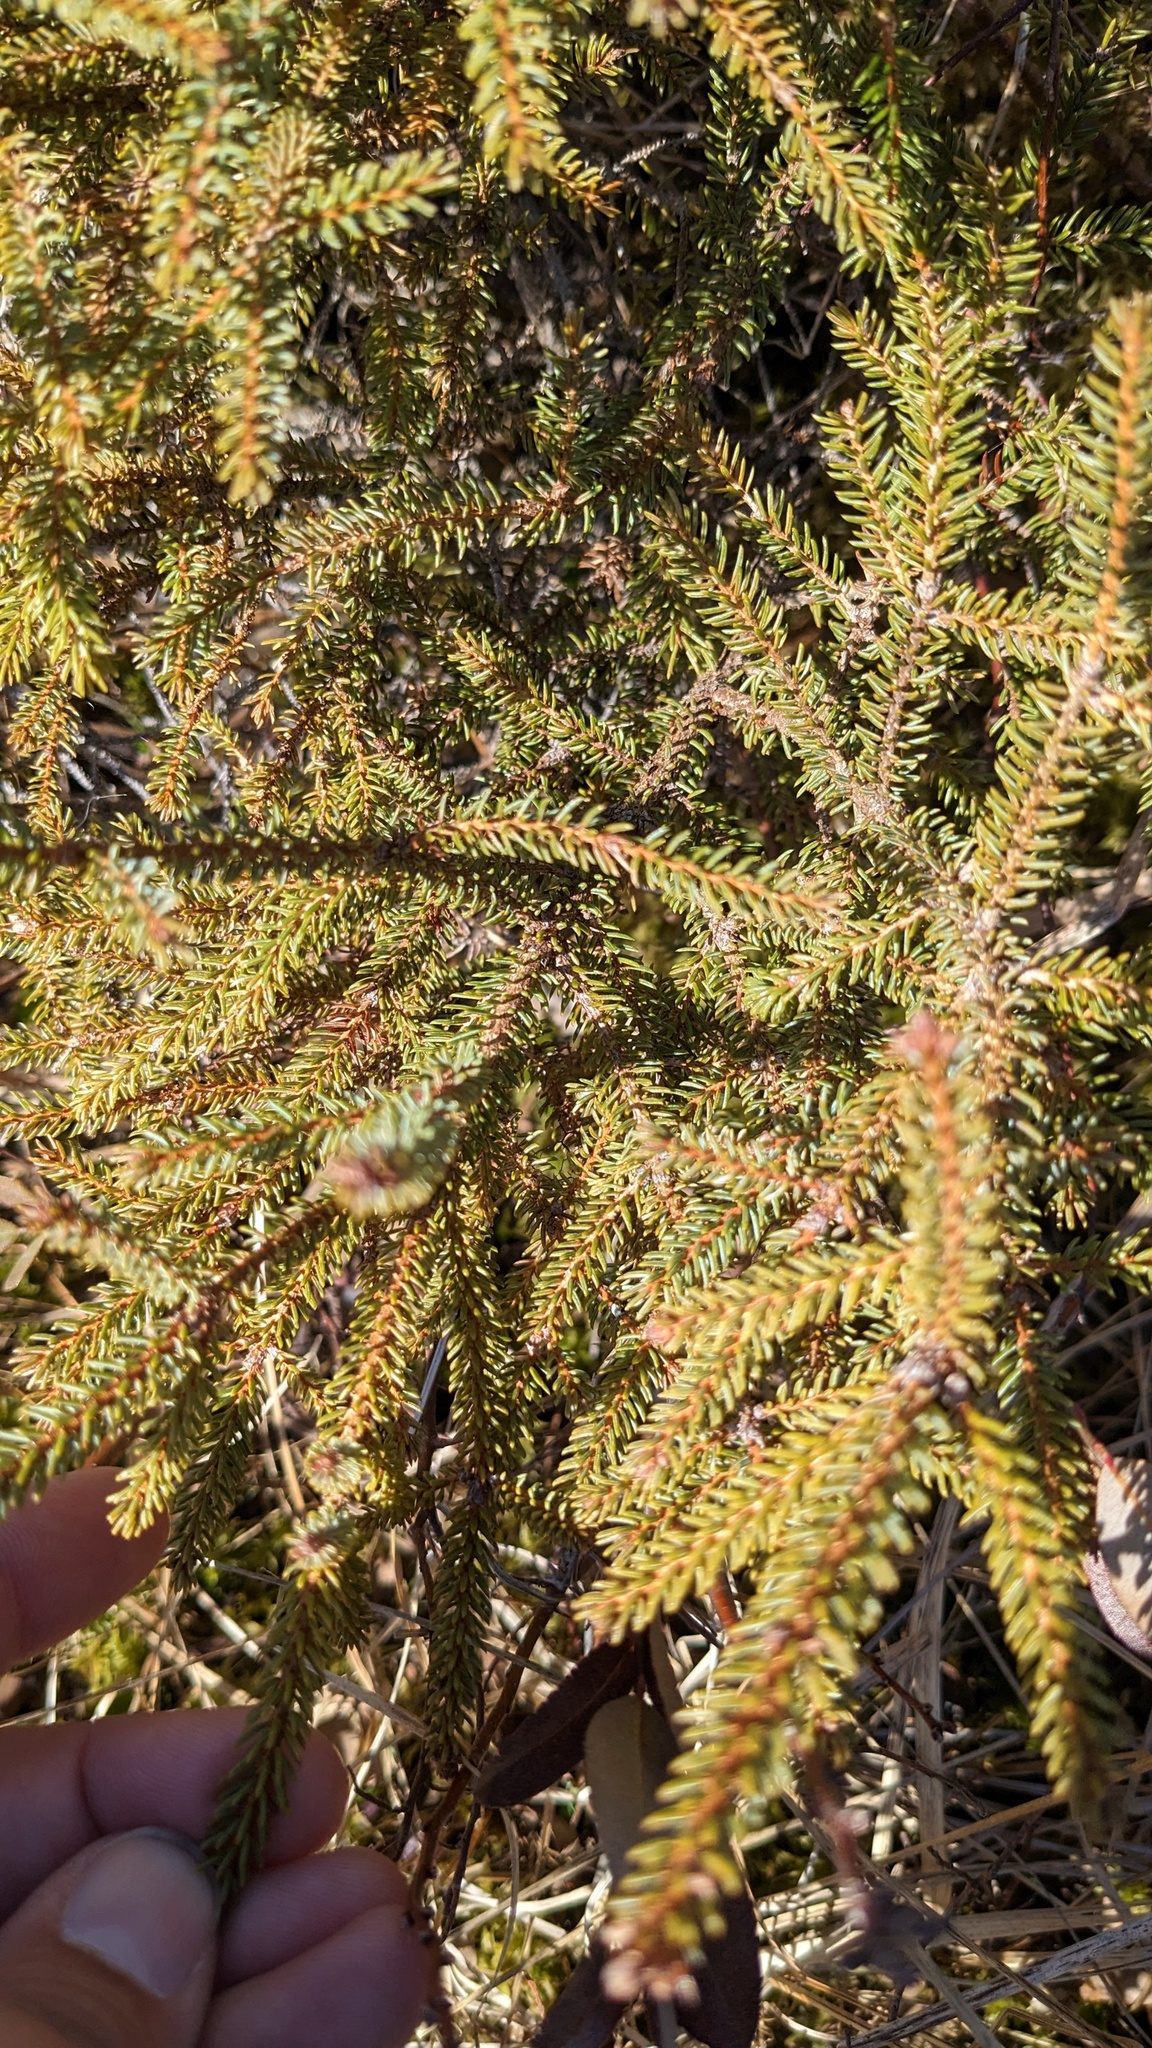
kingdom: Plantae
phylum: Tracheophyta
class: Pinopsida
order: Pinales
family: Pinaceae
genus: Picea
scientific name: Picea mariana
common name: Black spruce
